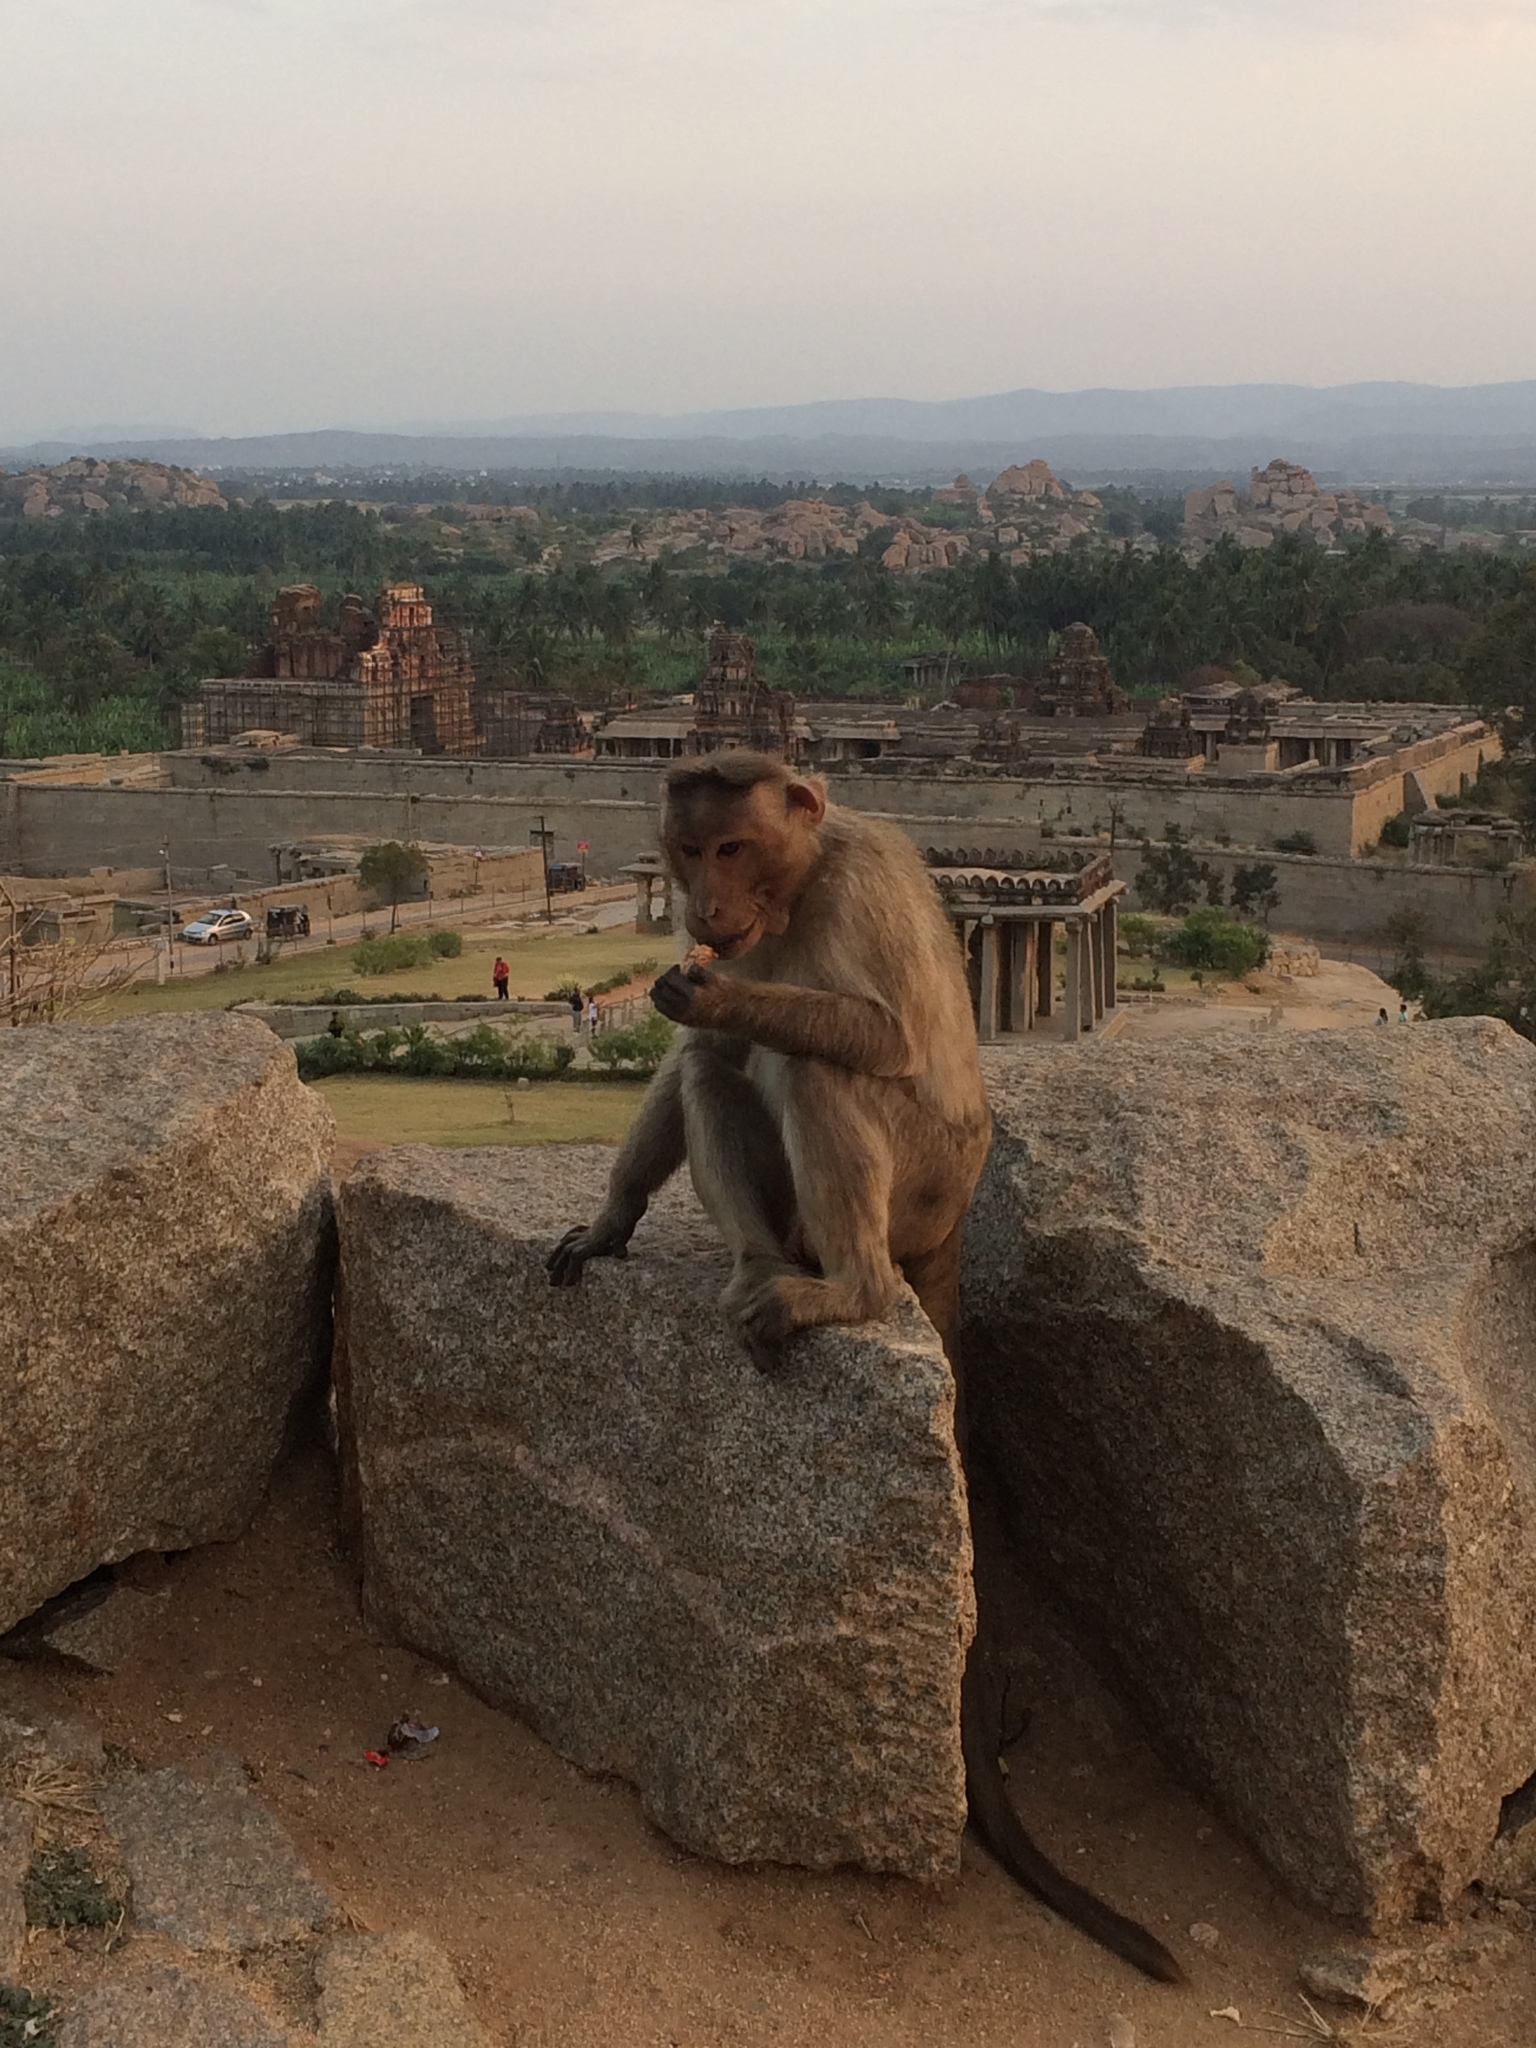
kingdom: Animalia
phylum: Chordata
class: Mammalia
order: Primates
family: Cercopithecidae
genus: Macaca
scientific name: Macaca radiata
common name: Bonnet macaque
